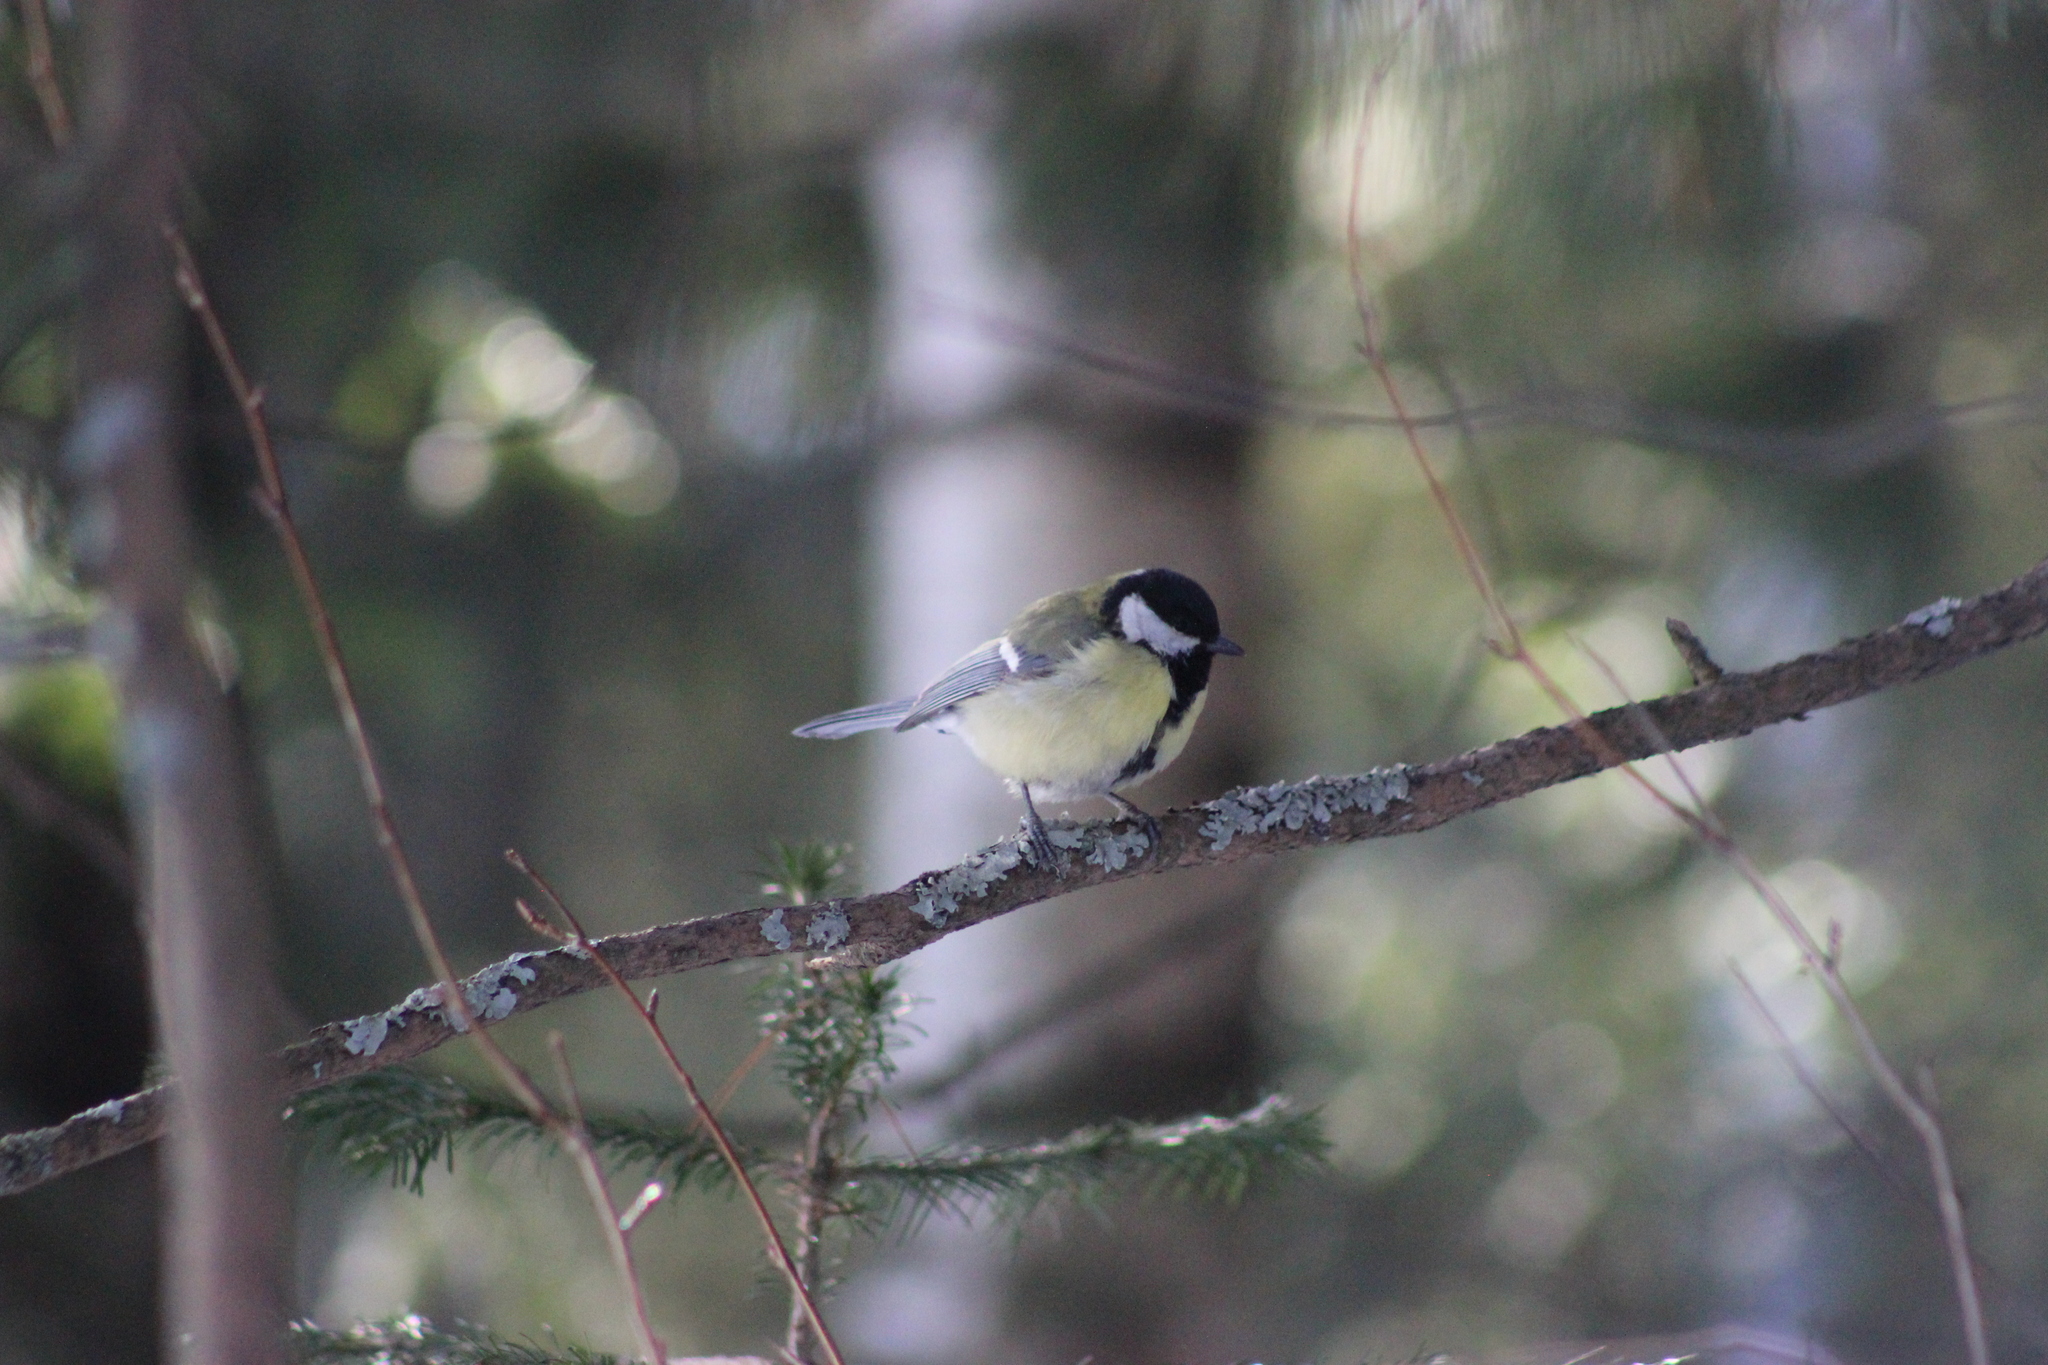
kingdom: Animalia
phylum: Chordata
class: Aves
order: Passeriformes
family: Paridae
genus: Parus
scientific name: Parus major
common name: Great tit
